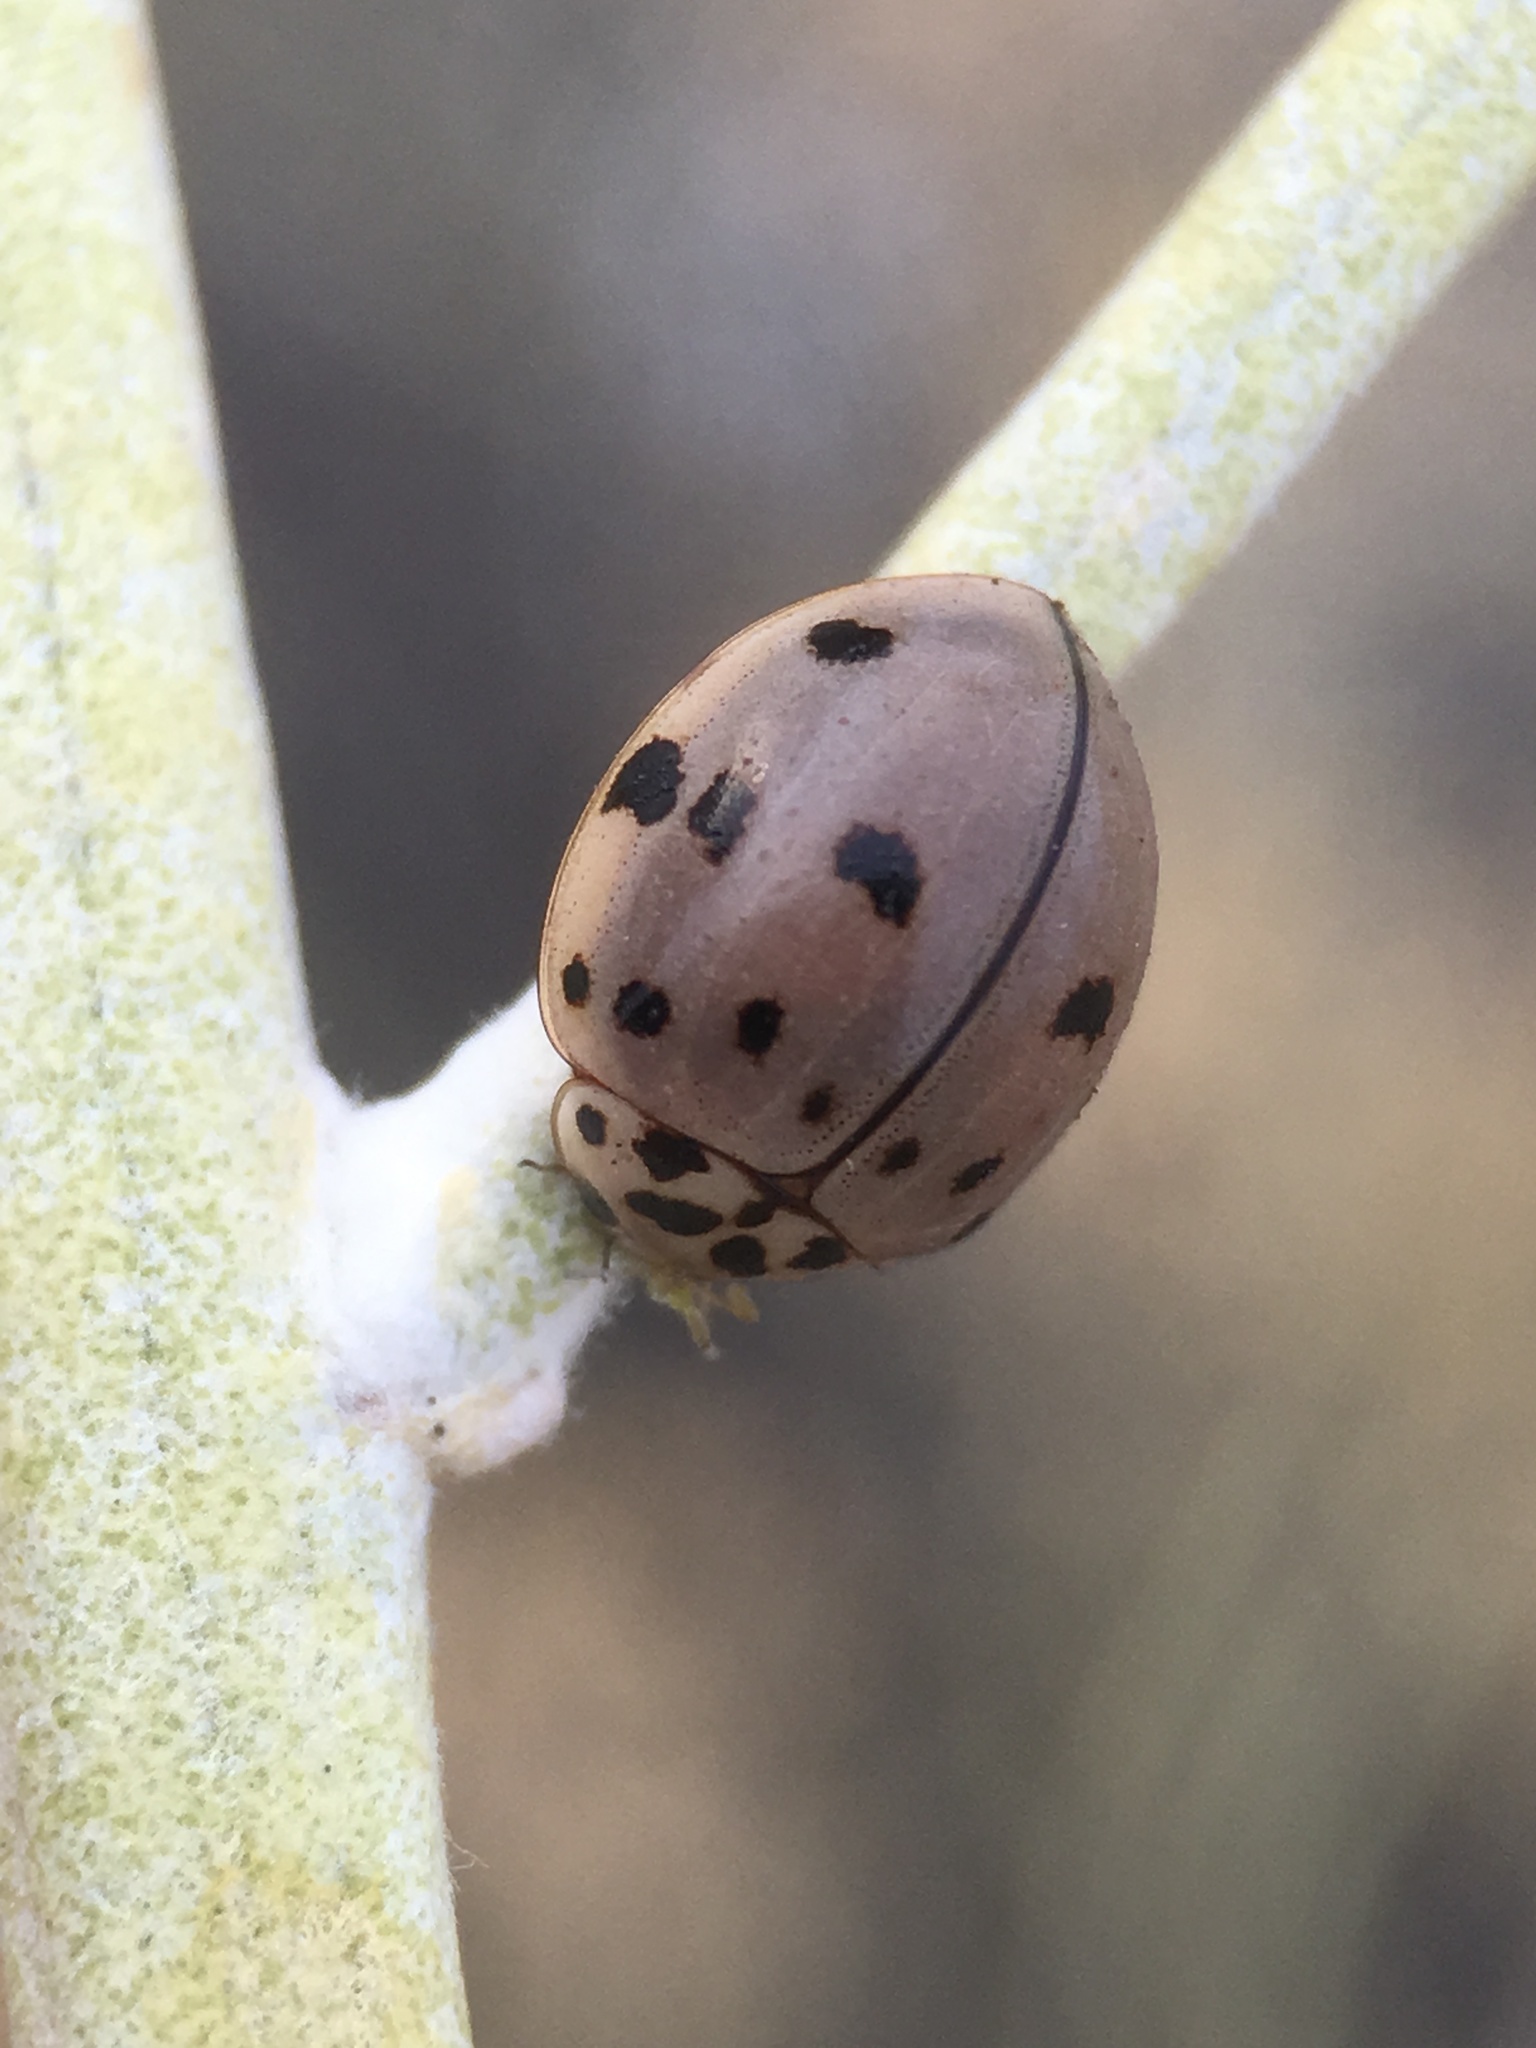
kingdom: Animalia
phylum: Arthropoda
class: Insecta
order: Coleoptera
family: Coccinellidae
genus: Olla
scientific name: Olla v-nigrum
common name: Ashy gray lady beetle
